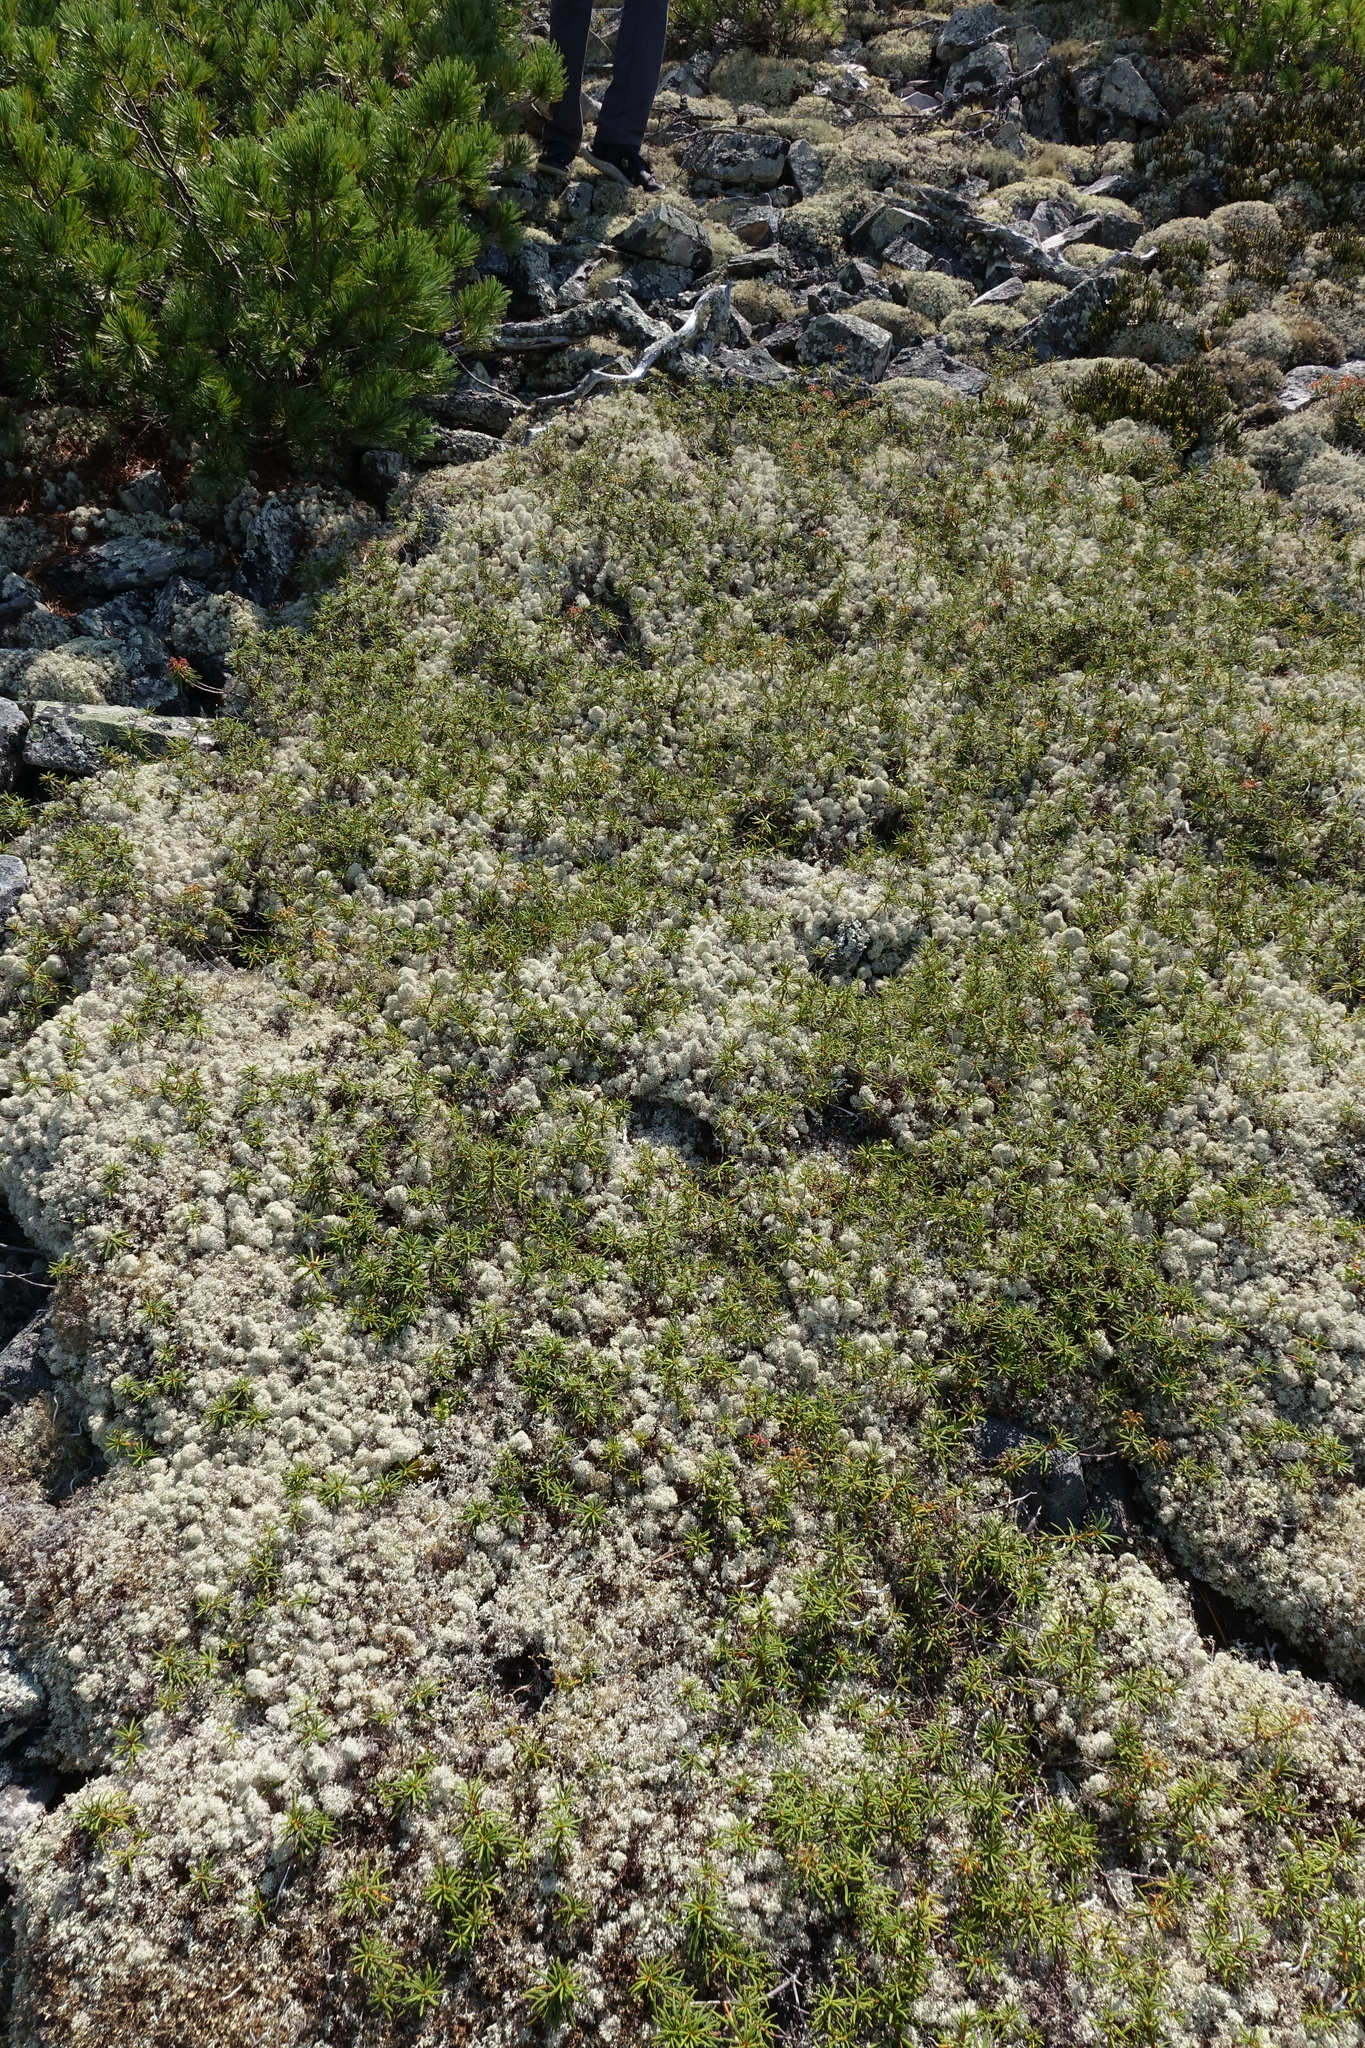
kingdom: Plantae
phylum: Tracheophyta
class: Magnoliopsida
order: Ericales
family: Ericaceae
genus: Rhododendron
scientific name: Rhododendron tomentosum
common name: Marsh labrador tea
